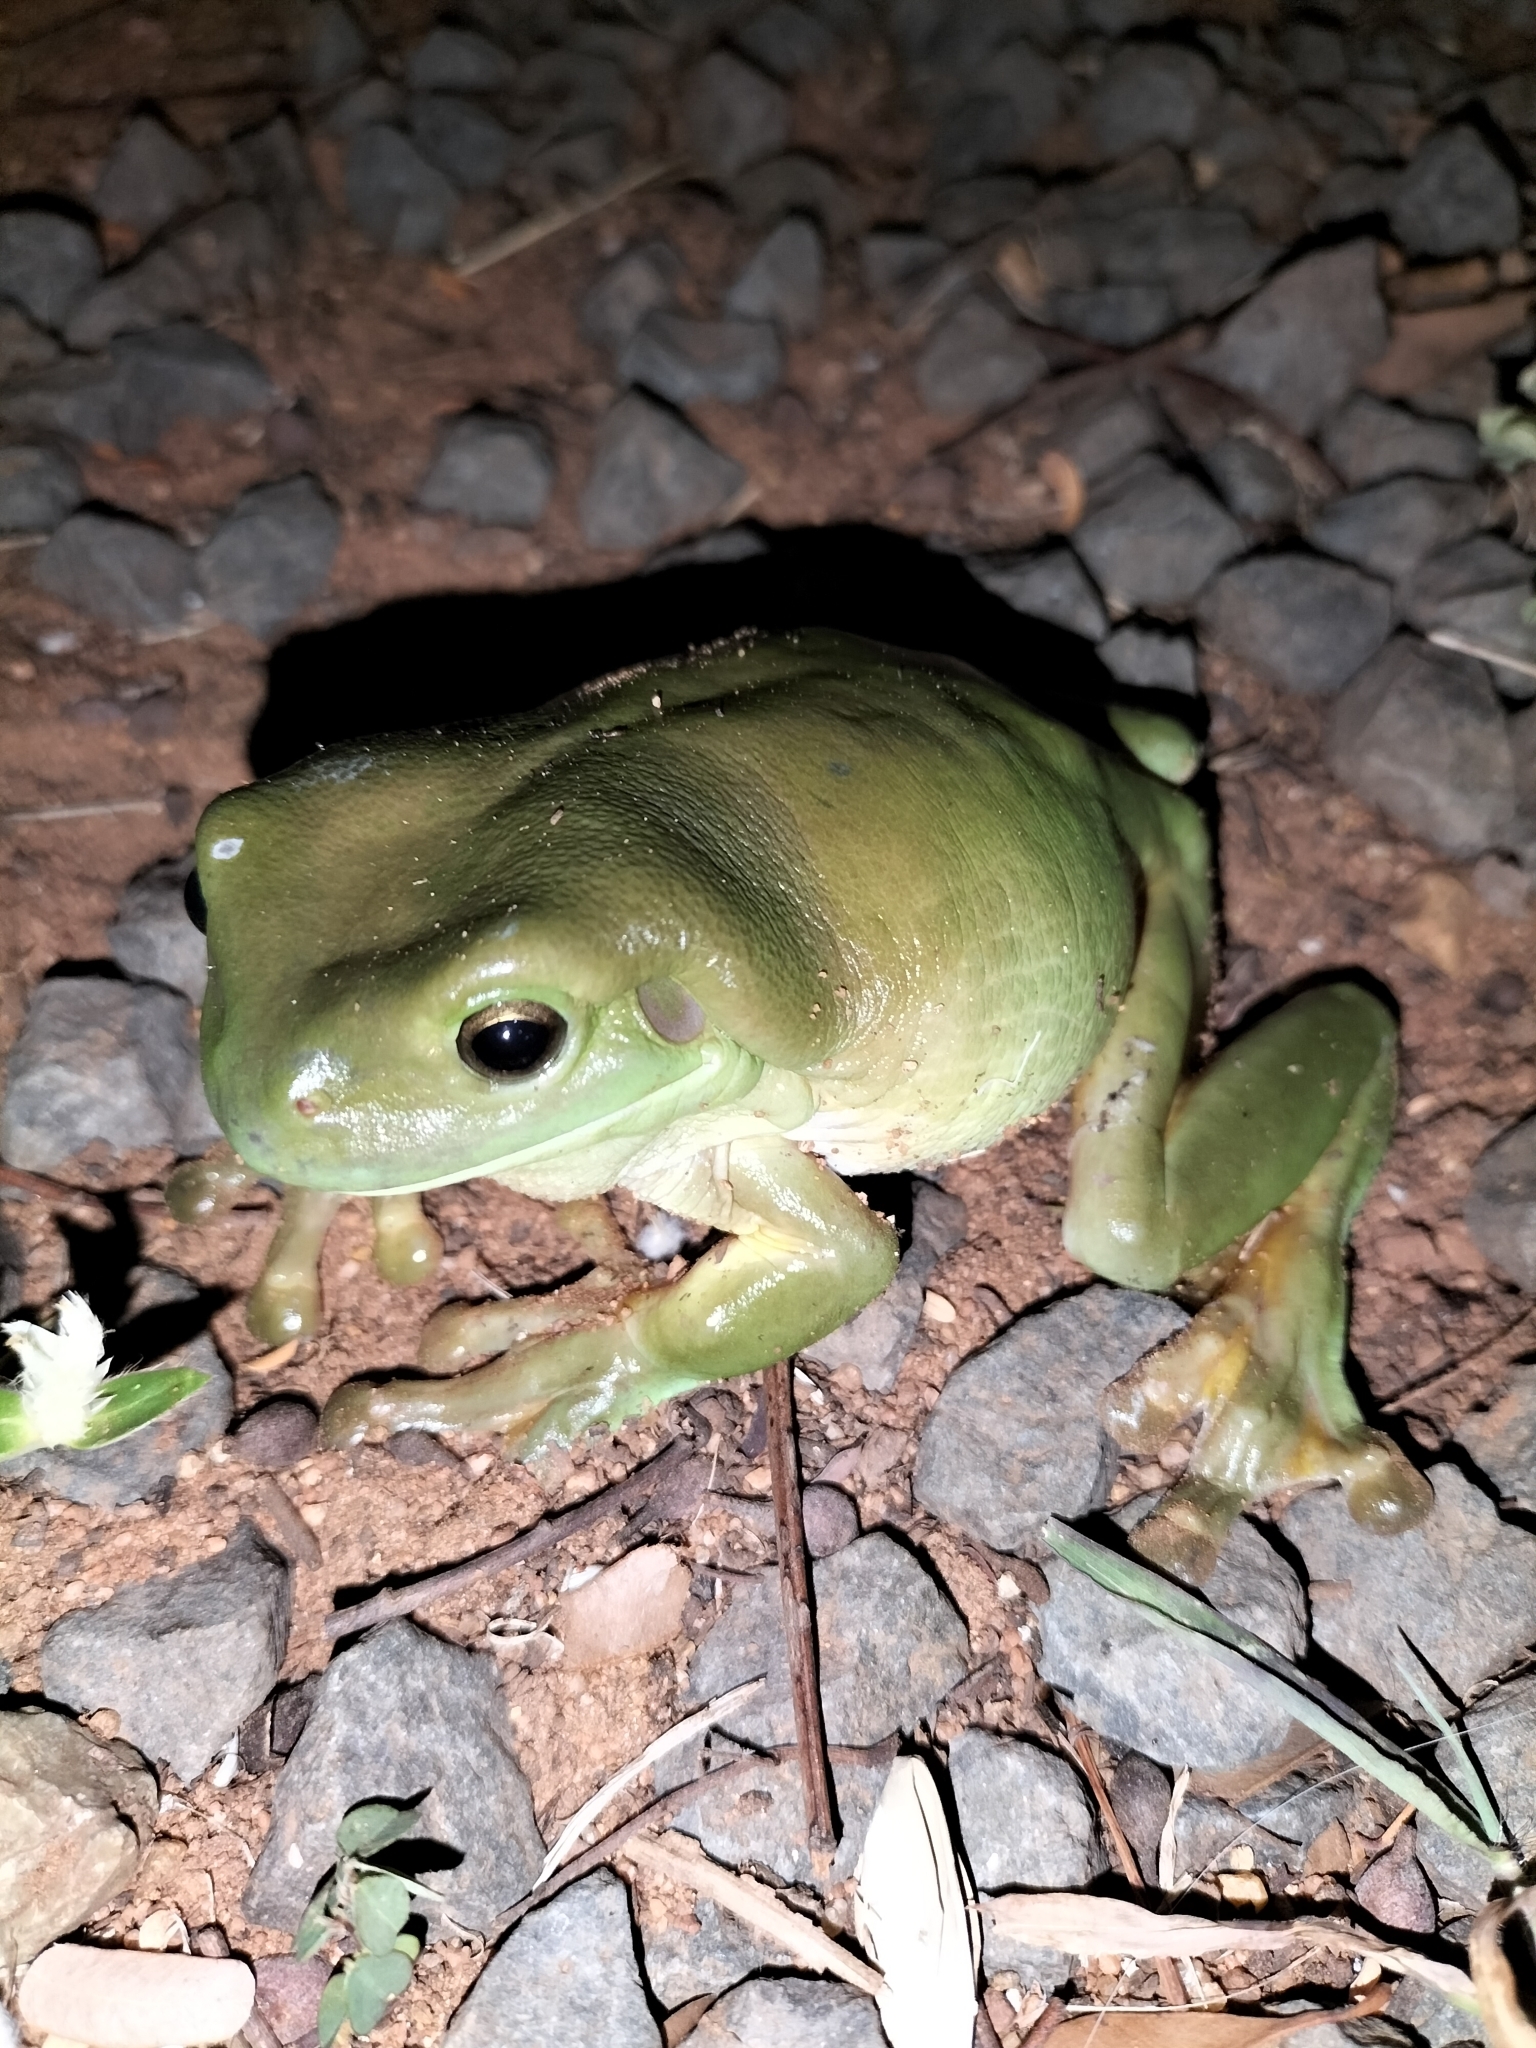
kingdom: Animalia
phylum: Chordata
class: Amphibia
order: Anura
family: Pelodryadidae
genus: Ranoidea
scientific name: Ranoidea caerulea
